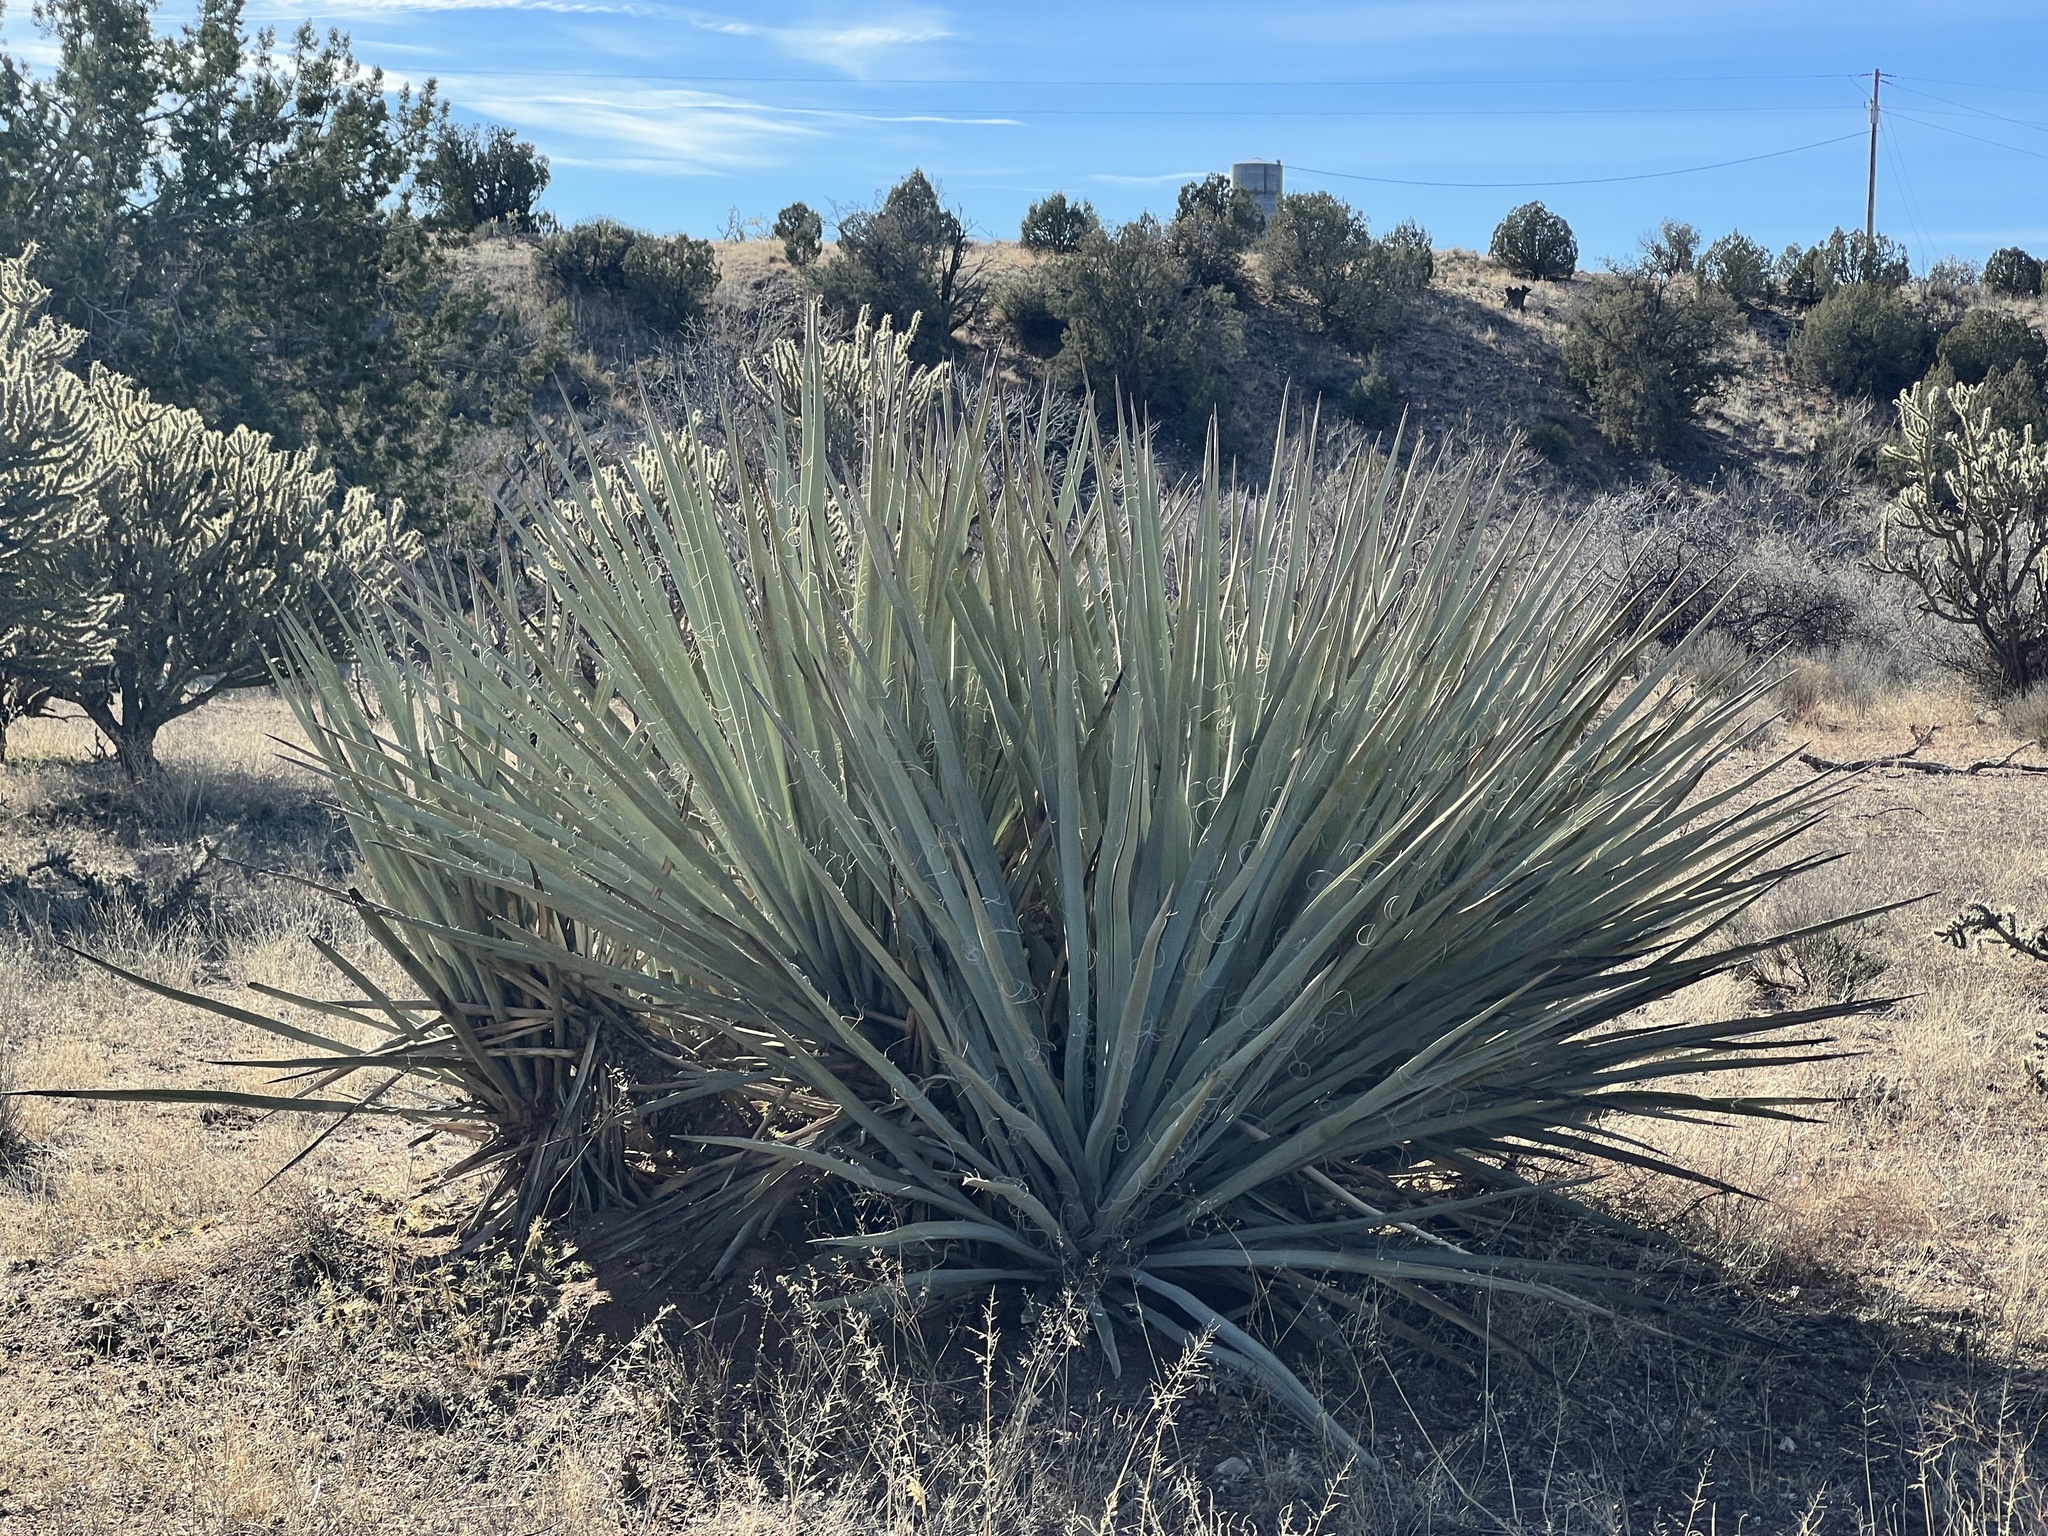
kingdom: Plantae
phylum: Tracheophyta
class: Liliopsida
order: Asparagales
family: Asparagaceae
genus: Yucca
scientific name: Yucca baccata
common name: Banana yucca
